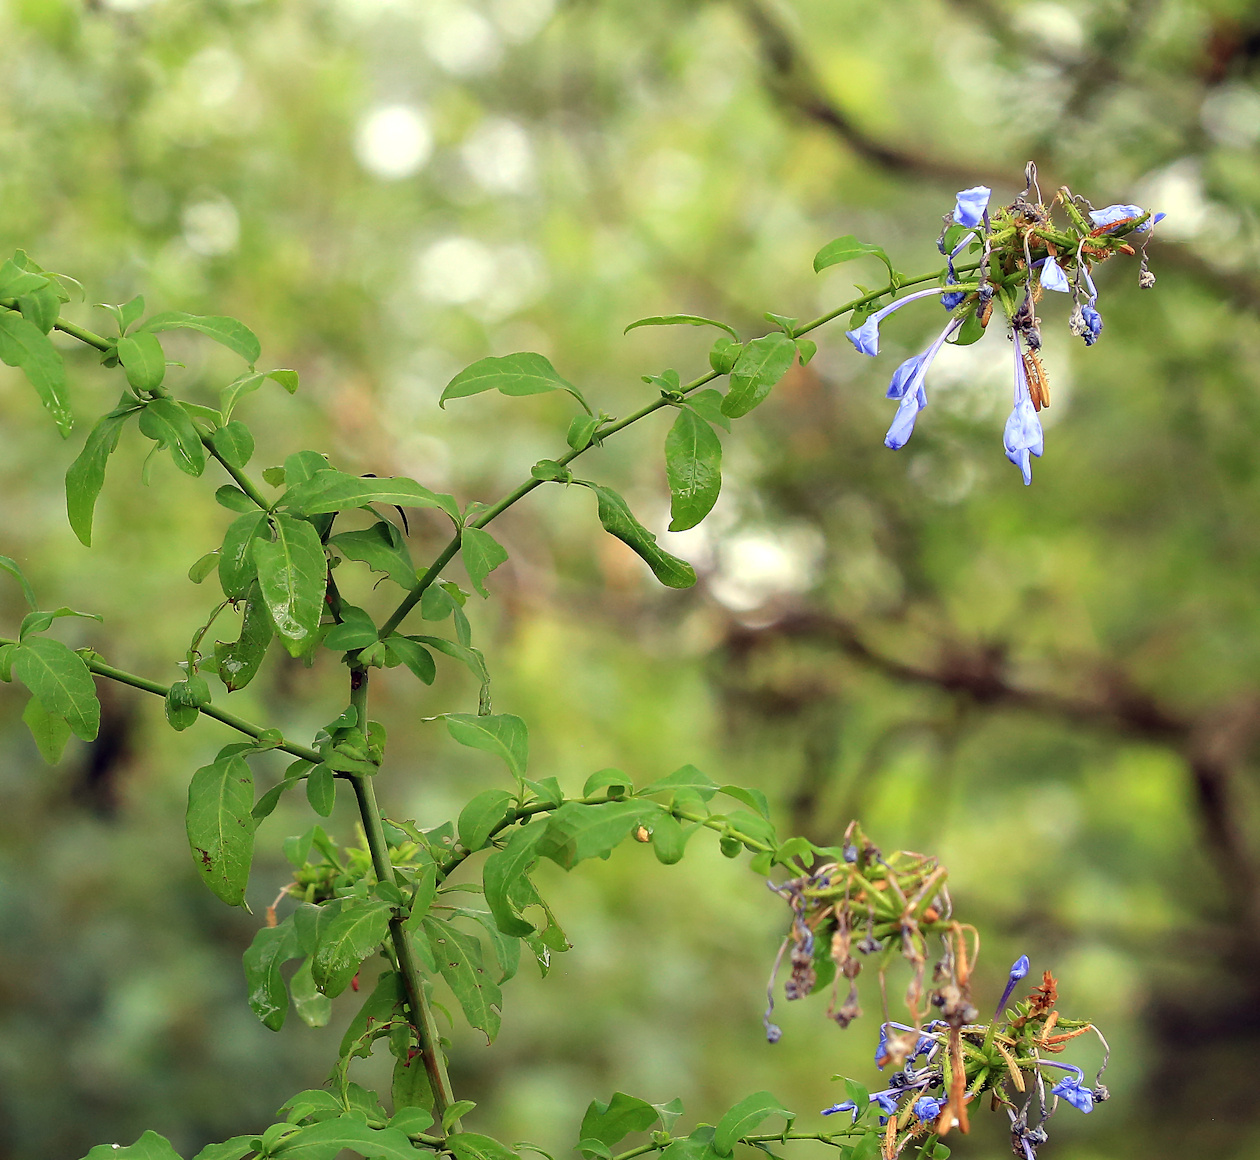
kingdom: Plantae
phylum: Tracheophyta
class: Magnoliopsida
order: Caryophyllales
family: Plumbaginaceae
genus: Plumbago
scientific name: Plumbago auriculata
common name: Cape leadwort
